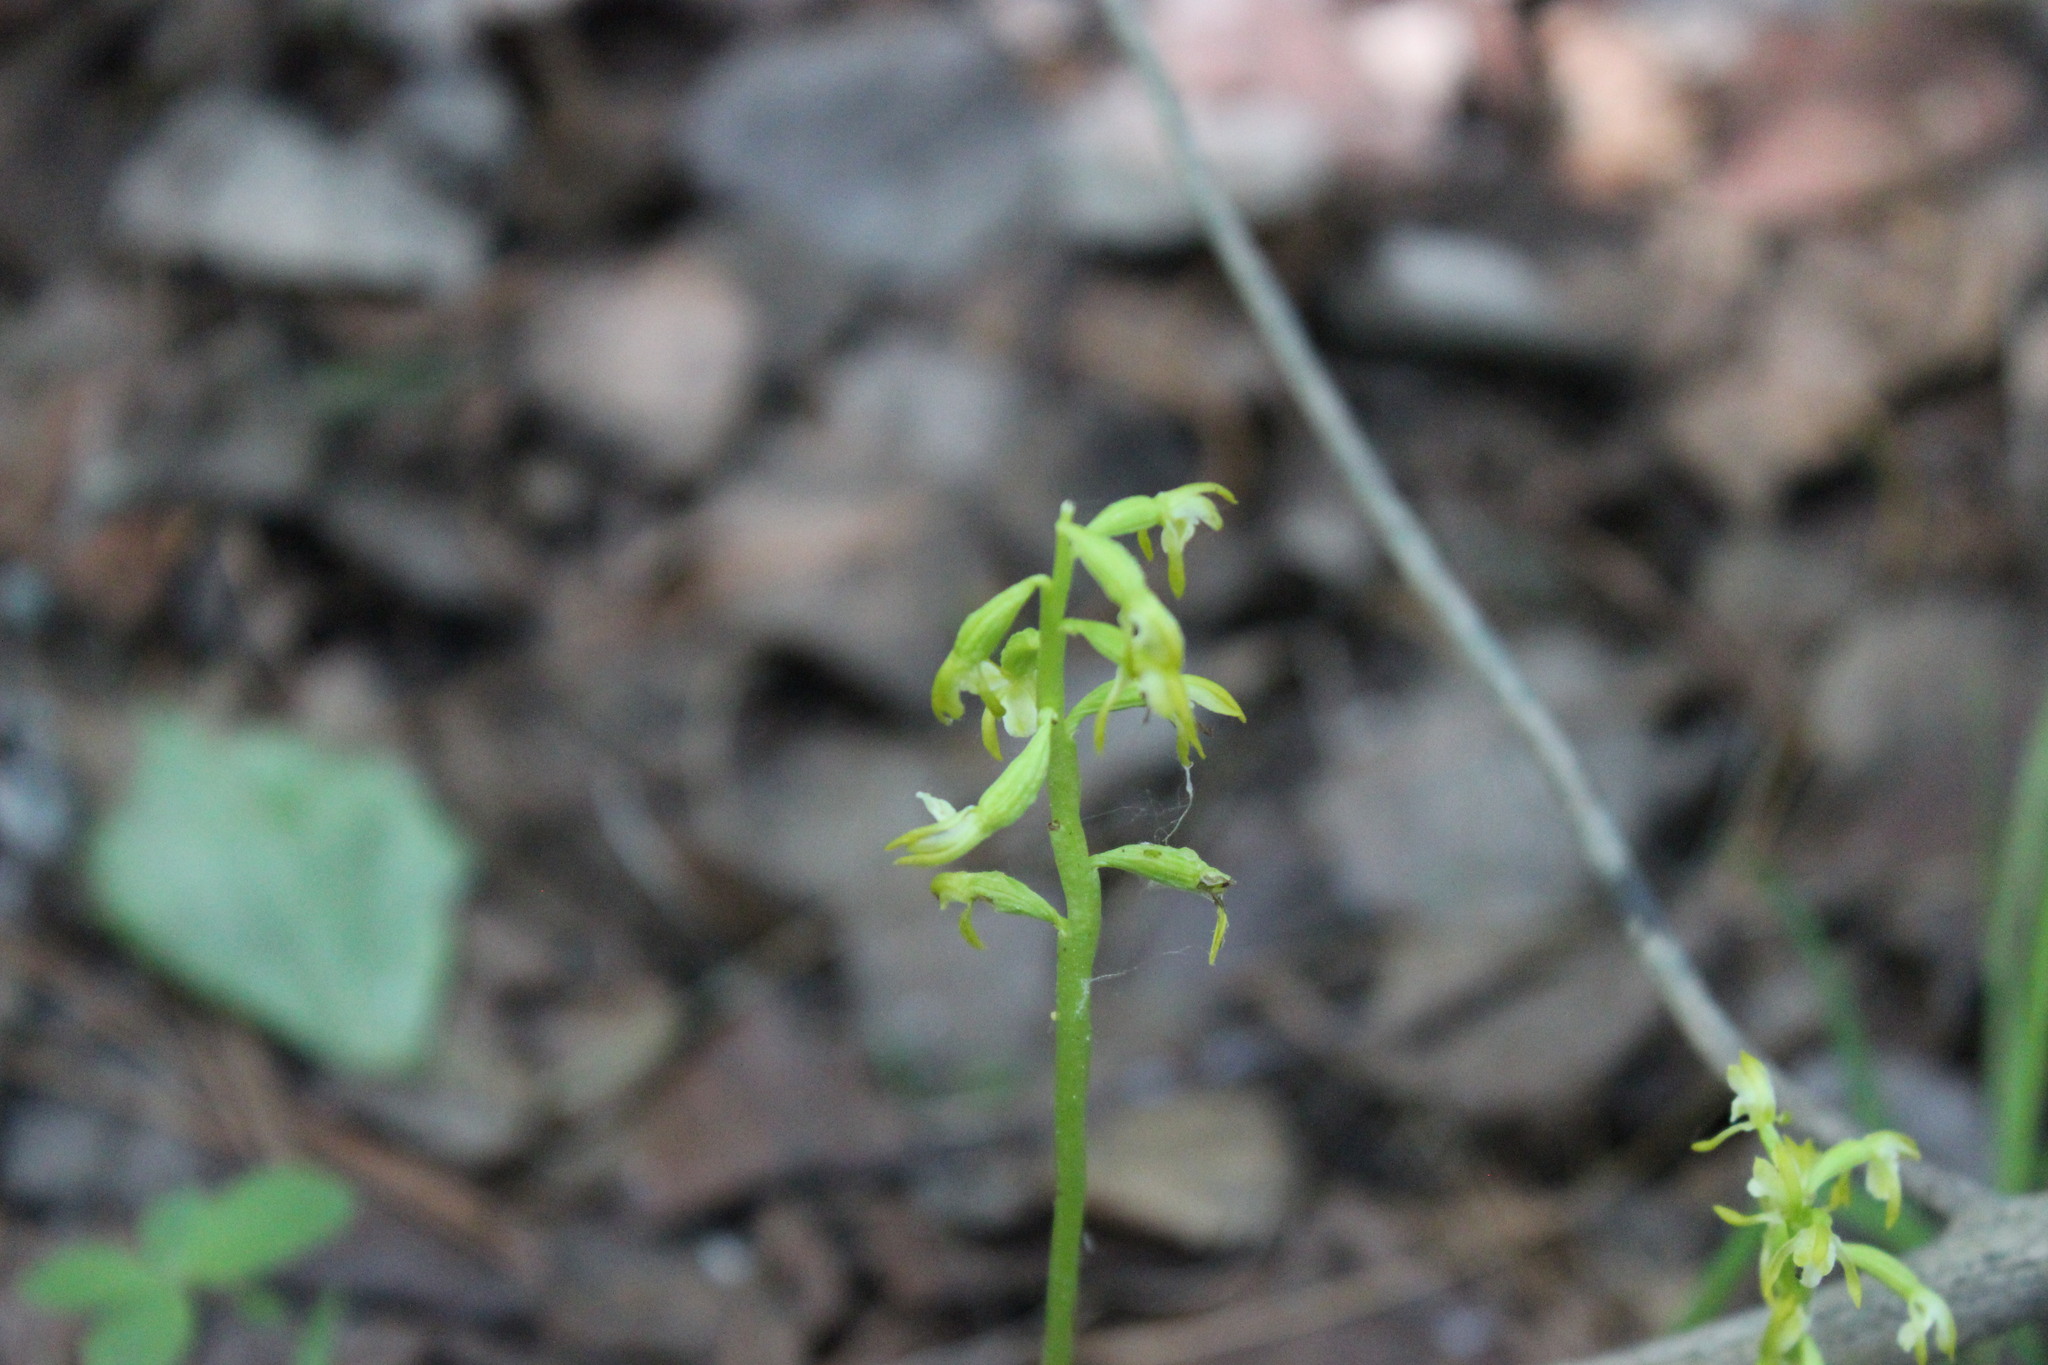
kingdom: Plantae
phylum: Tracheophyta
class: Liliopsida
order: Asparagales
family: Orchidaceae
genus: Corallorhiza
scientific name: Corallorhiza trifida
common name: Yellow coralroot
